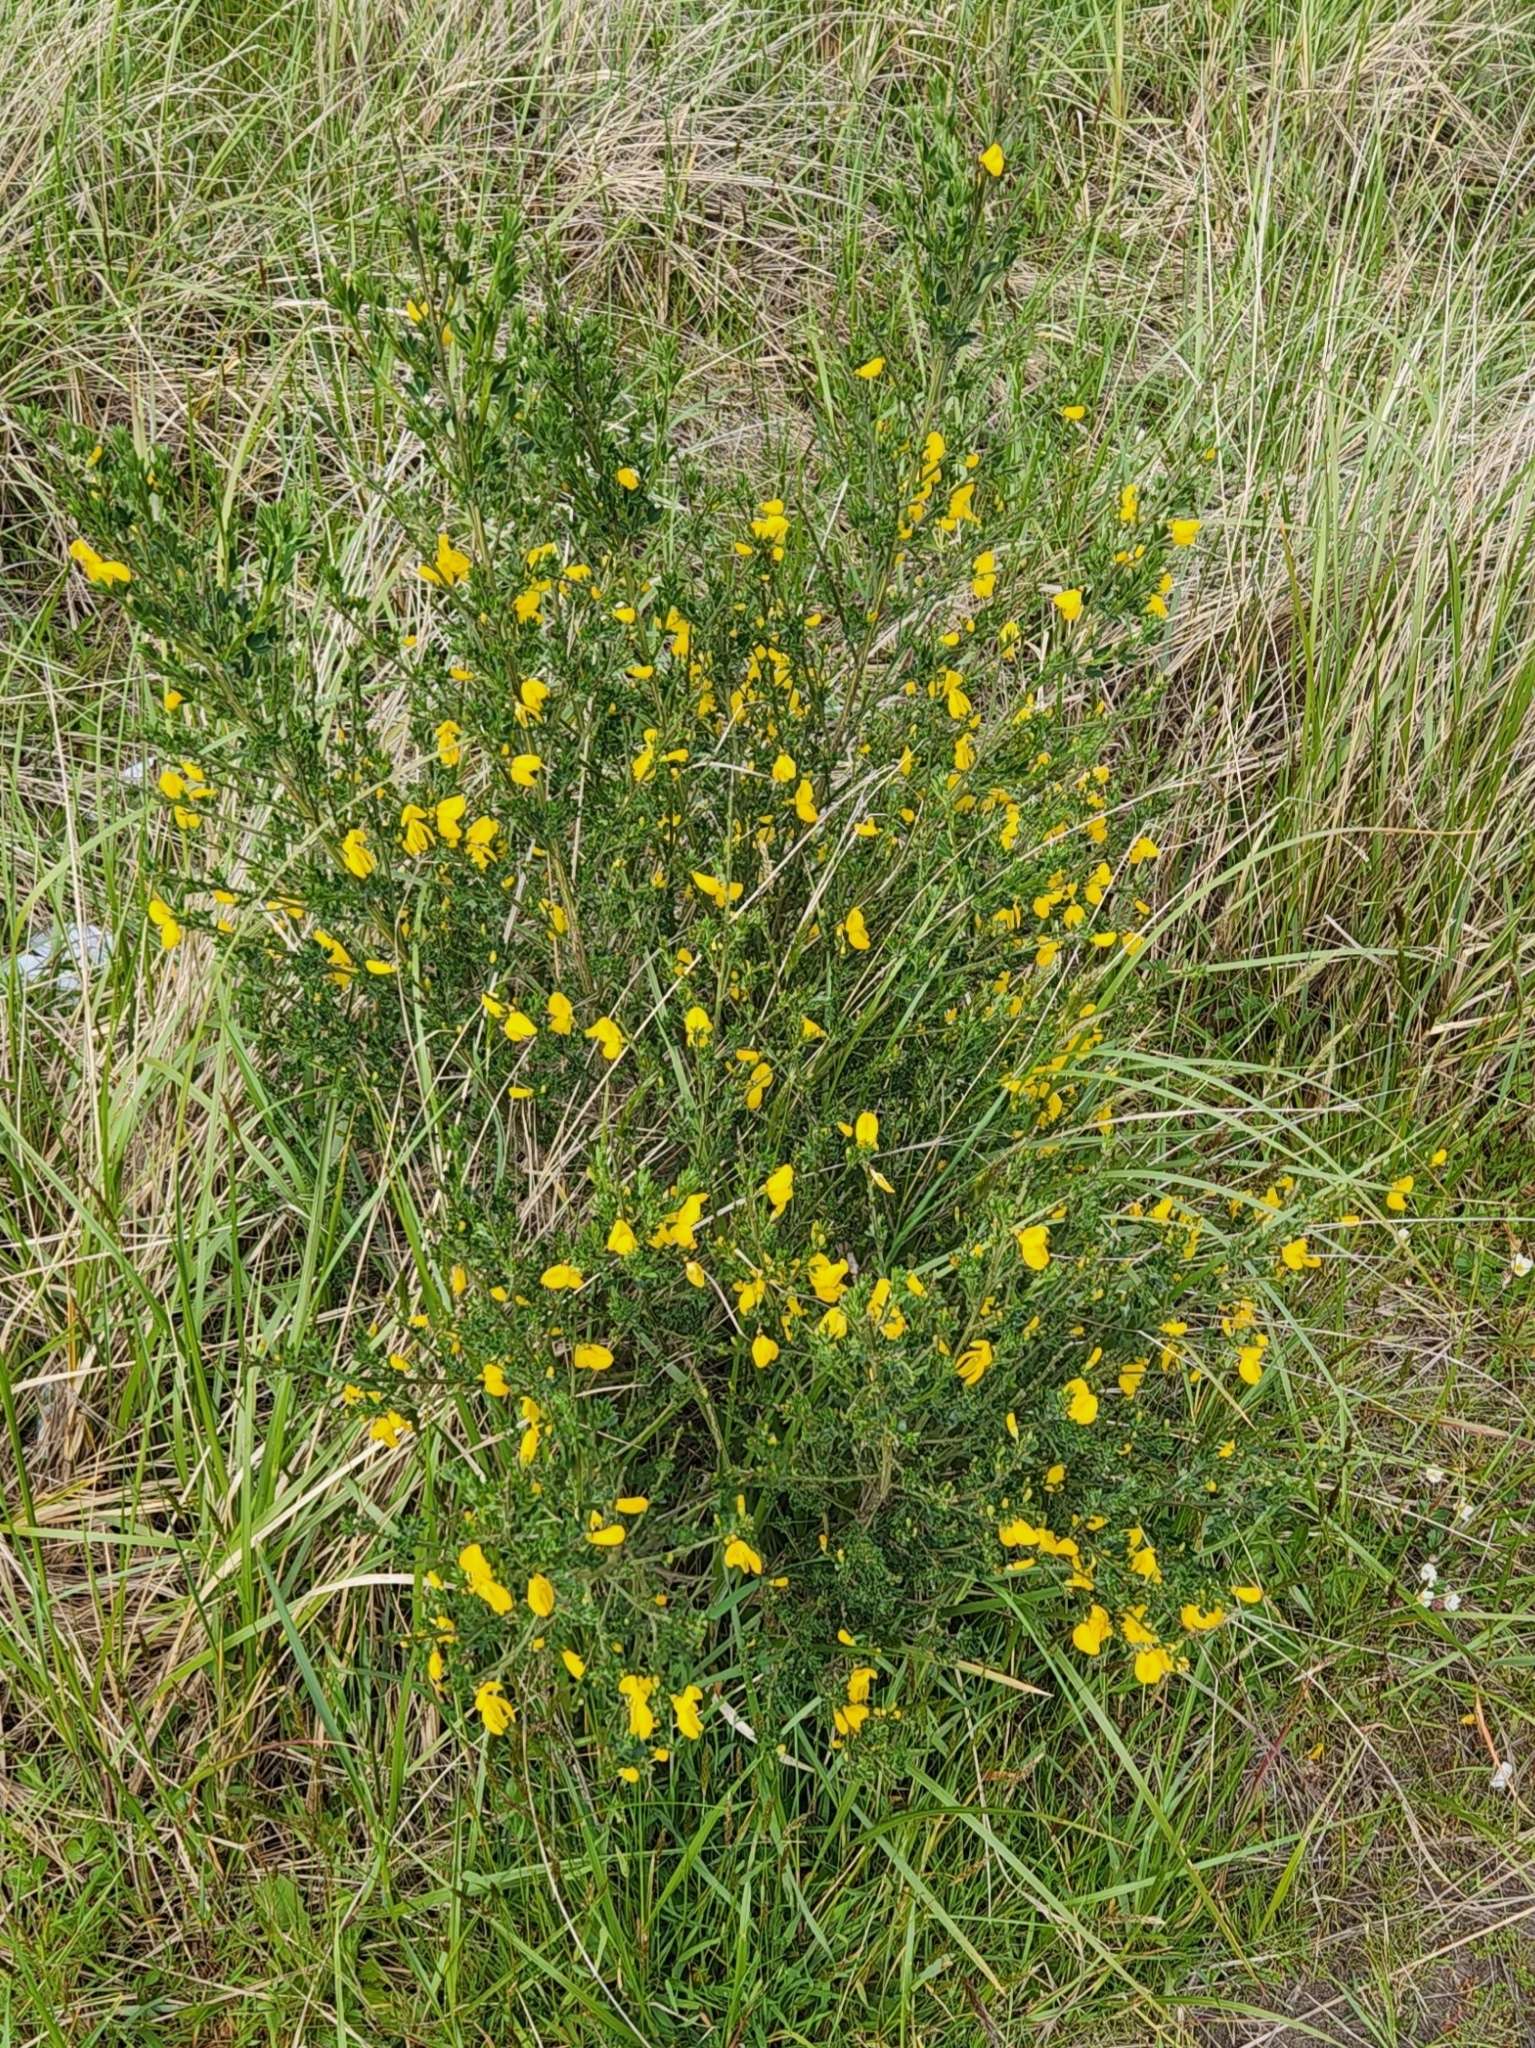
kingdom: Plantae
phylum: Tracheophyta
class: Magnoliopsida
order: Fabales
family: Fabaceae
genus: Cytisus
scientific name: Cytisus scoparius
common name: Scotch broom
